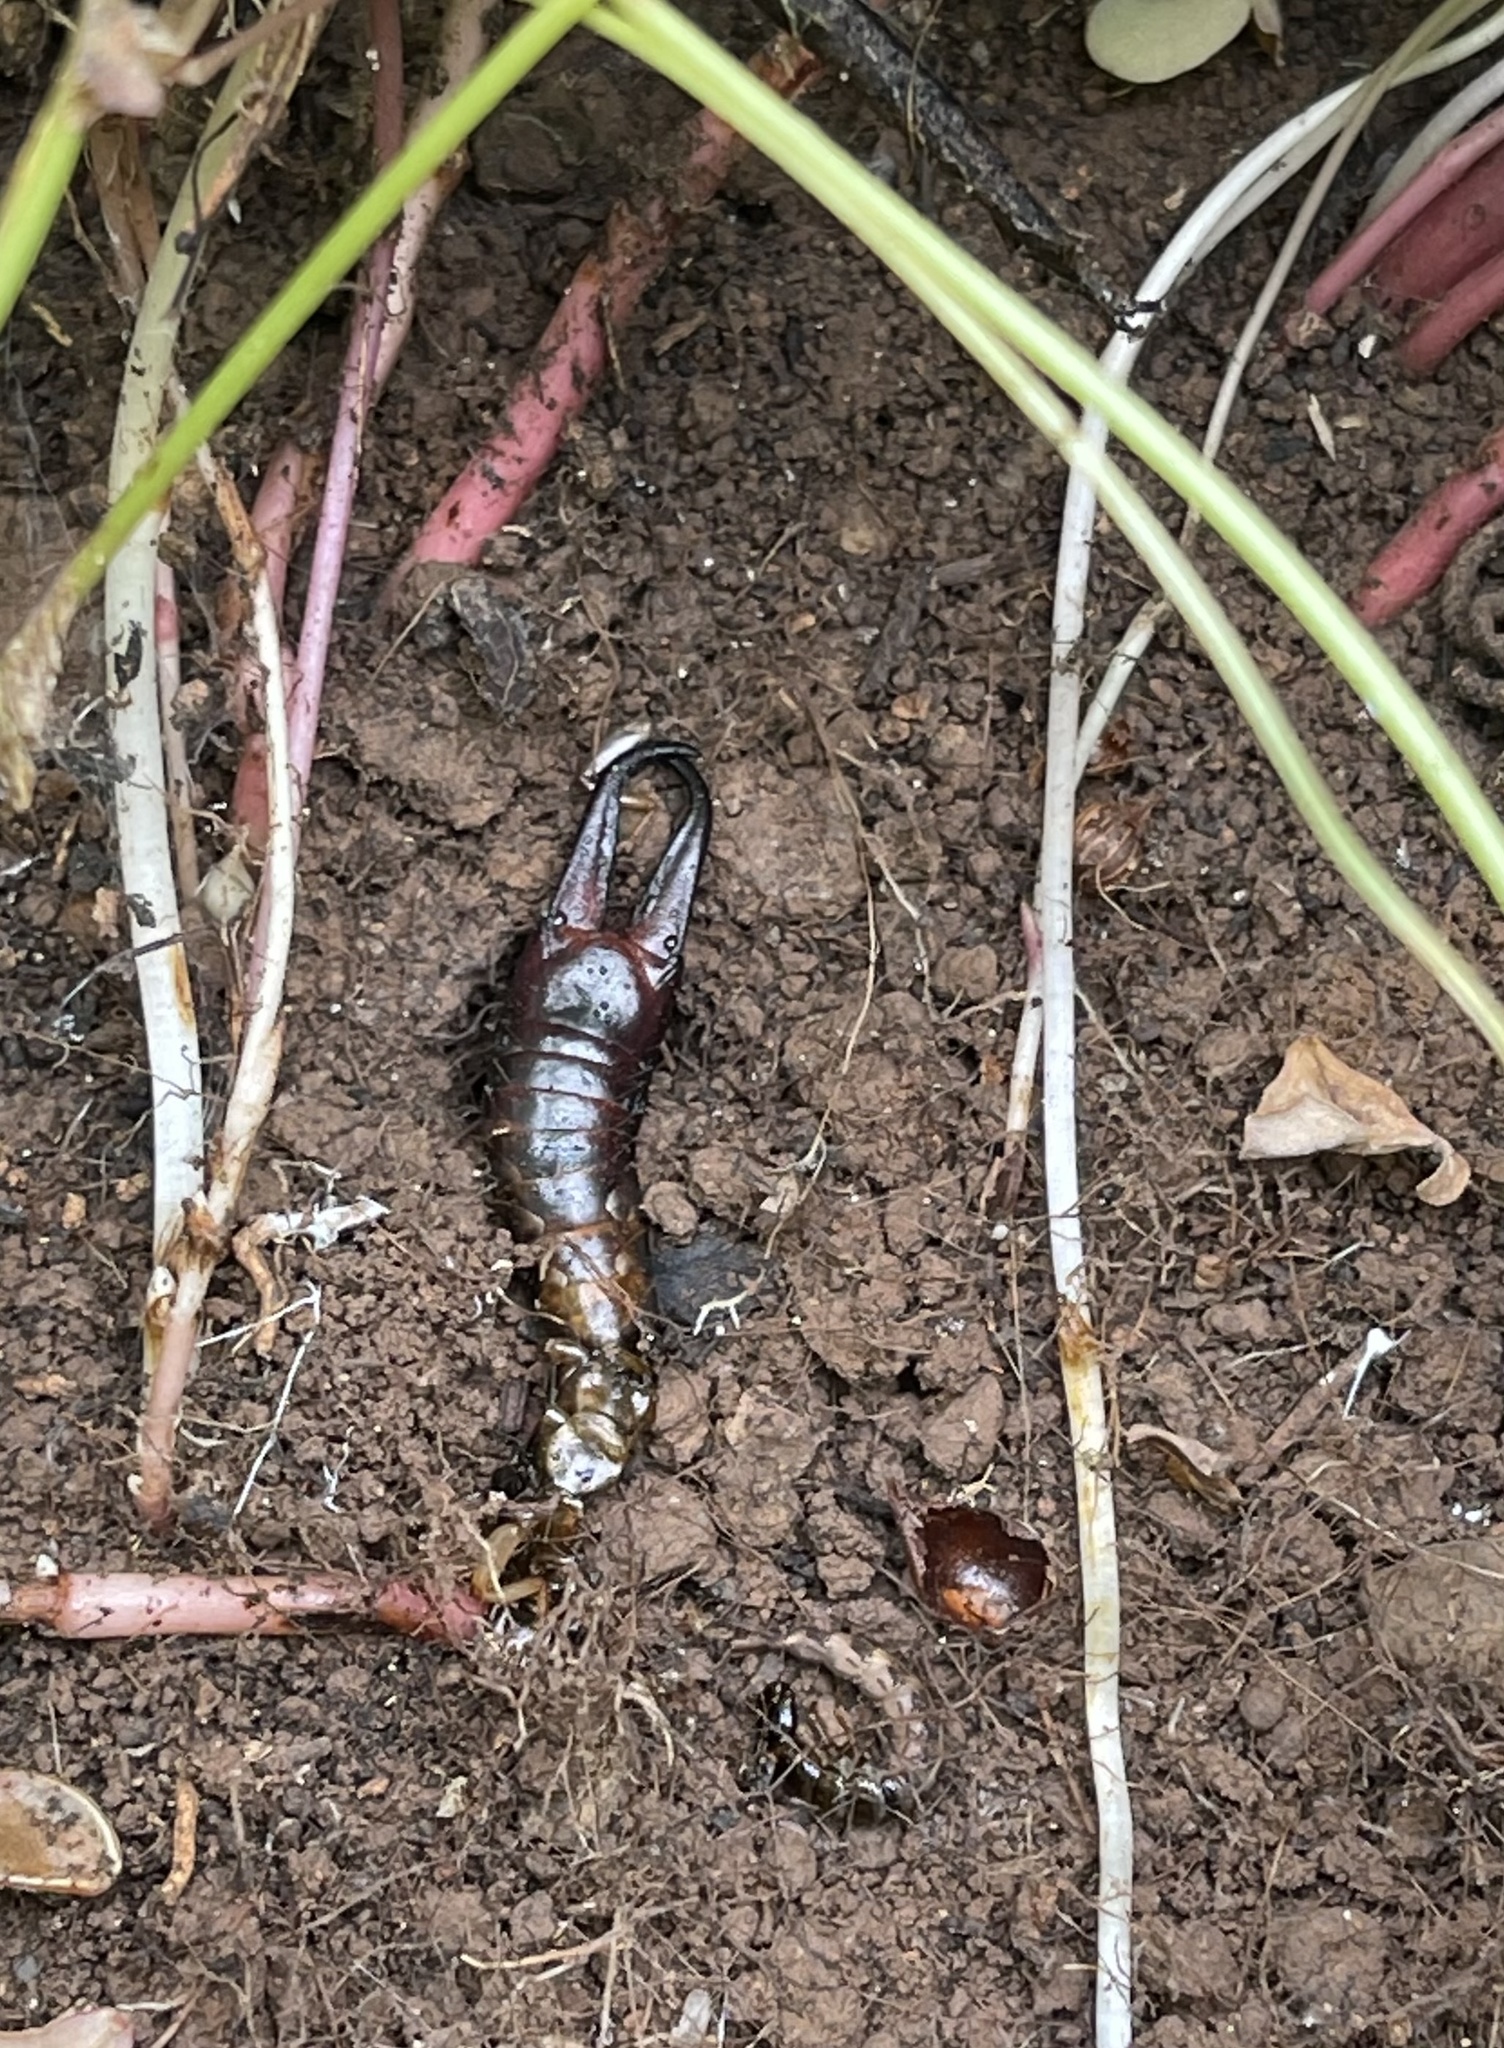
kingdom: Animalia
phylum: Arthropoda
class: Insecta
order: Dermaptera
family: Anisolabididae
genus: Canarilabis
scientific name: Canarilabis maxima
